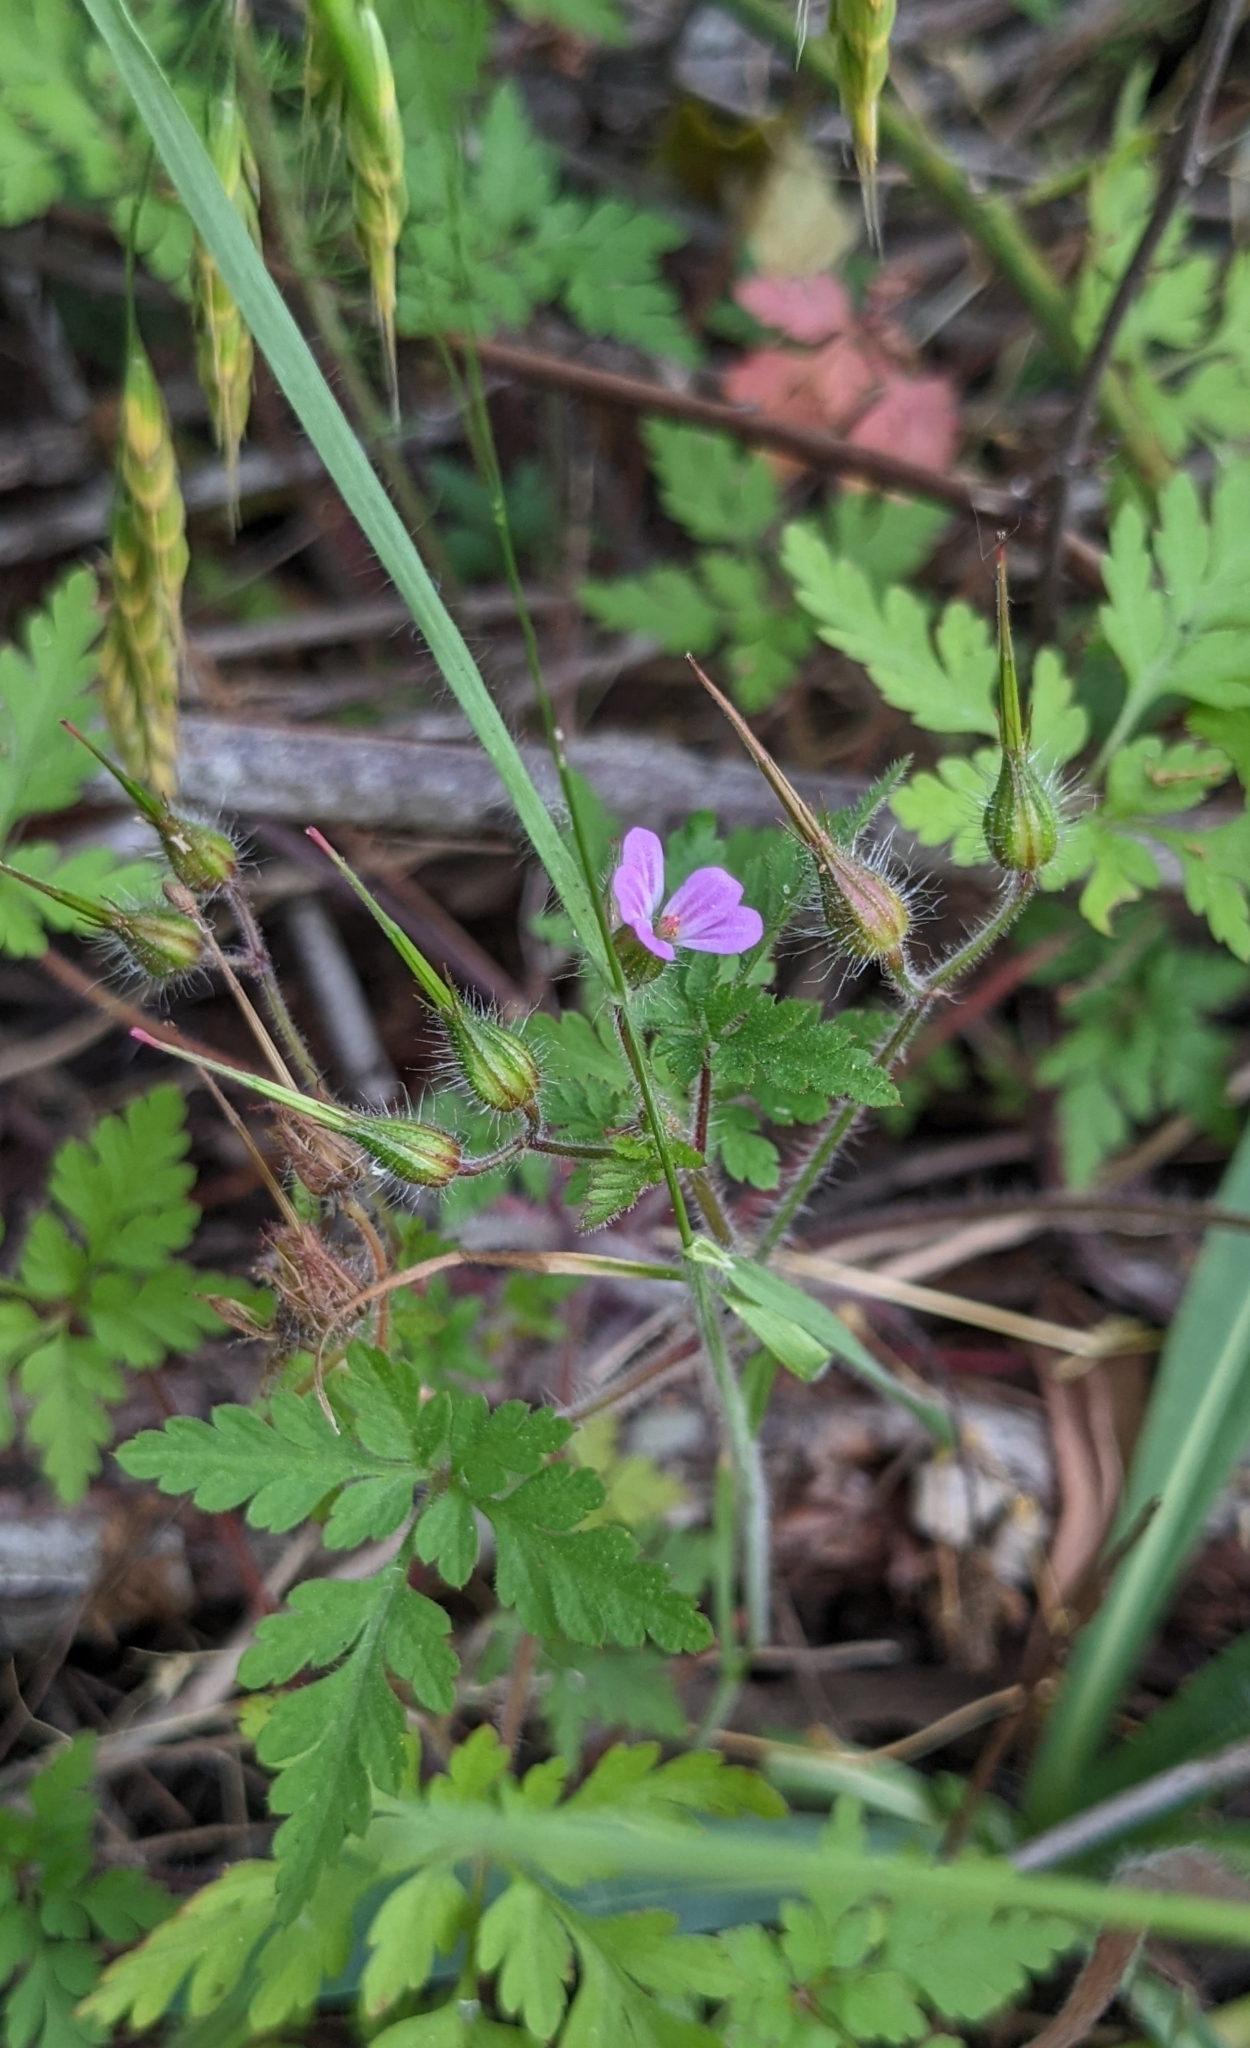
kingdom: Plantae
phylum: Tracheophyta
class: Magnoliopsida
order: Geraniales
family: Geraniaceae
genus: Geranium
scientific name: Geranium robertianum
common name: Herb-robert
